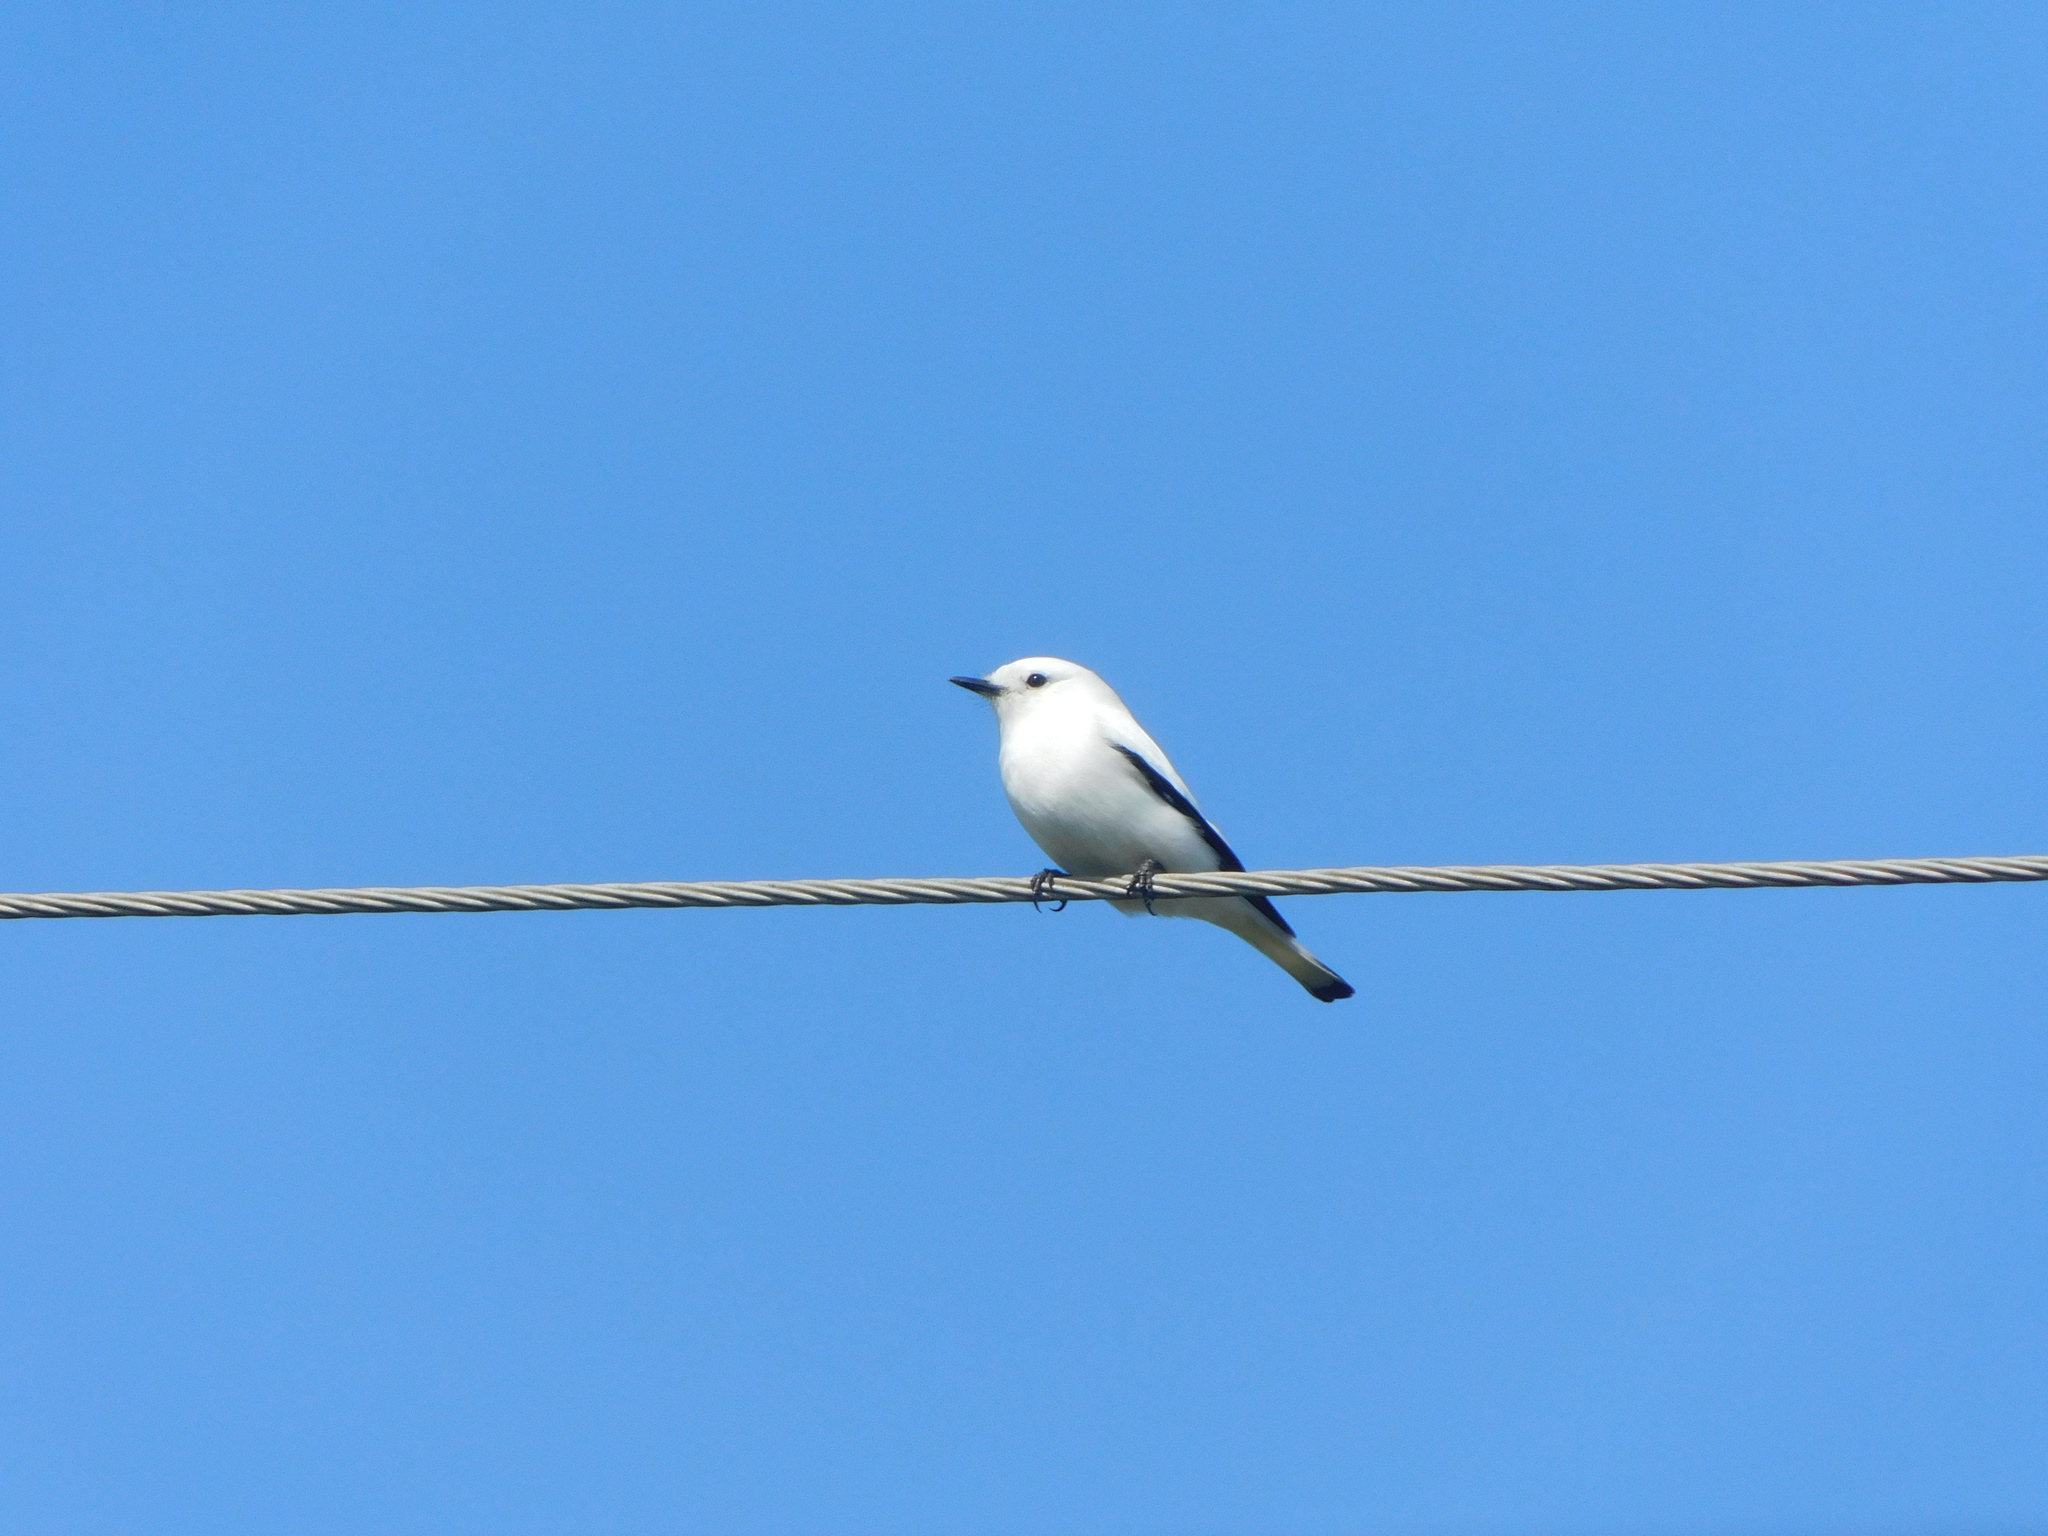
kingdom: Animalia
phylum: Chordata
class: Aves
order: Passeriformes
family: Tyrannidae
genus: Xolmis
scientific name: Xolmis irupero
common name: White monjita
